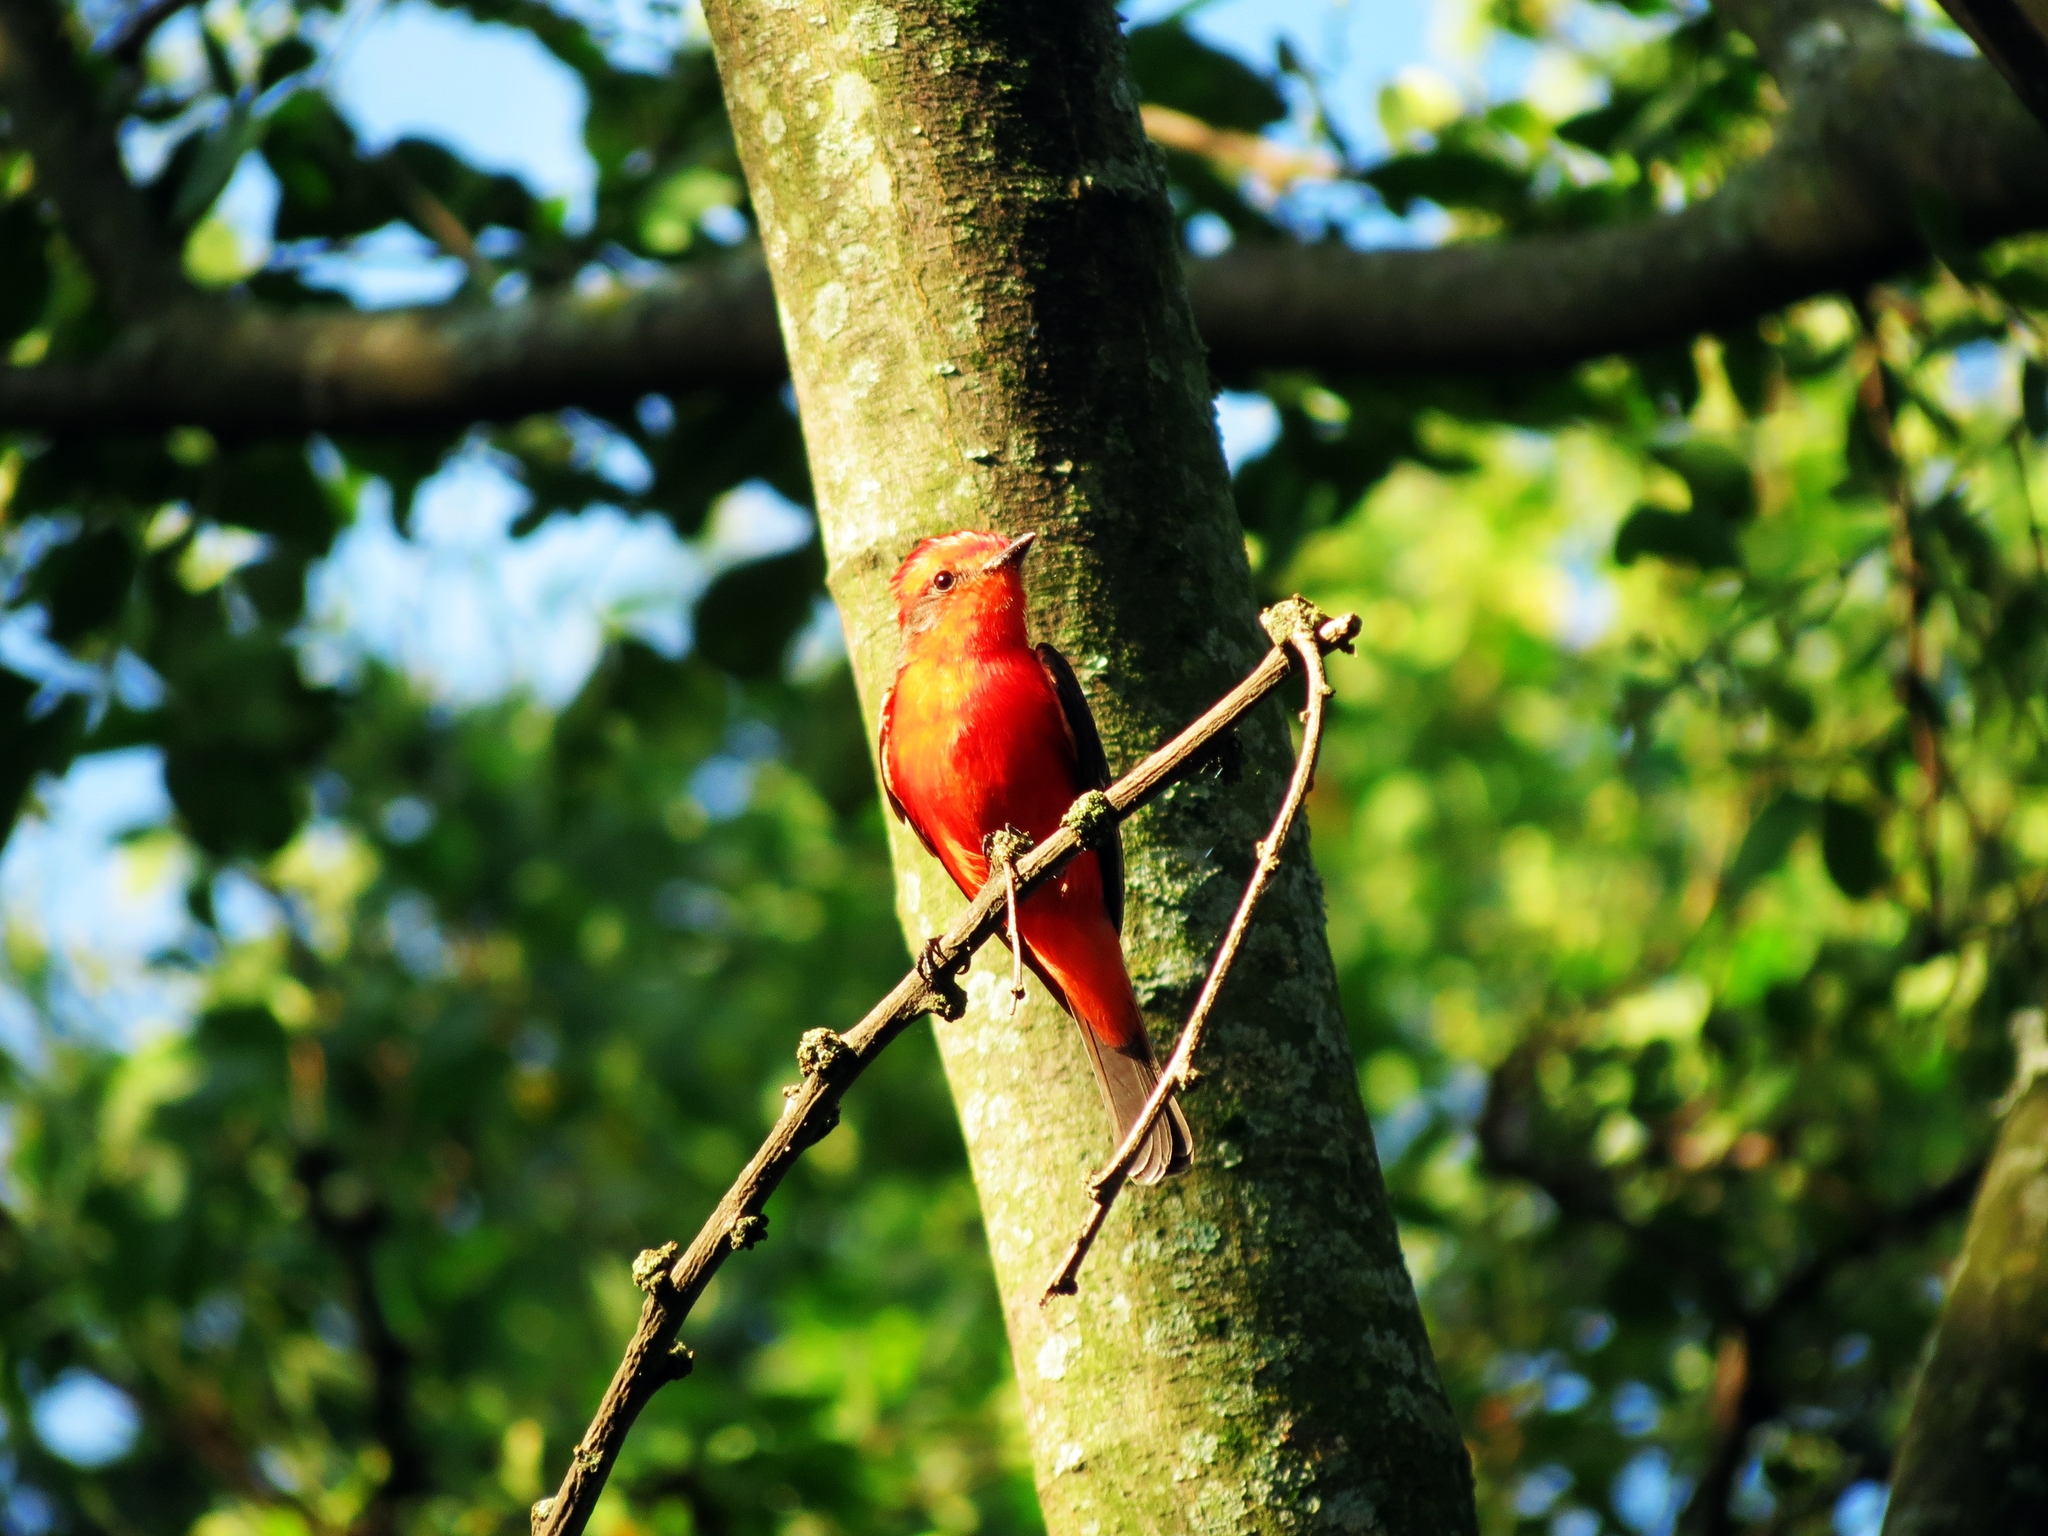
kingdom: Animalia
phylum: Chordata
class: Aves
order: Passeriformes
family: Tyrannidae
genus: Pyrocephalus
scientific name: Pyrocephalus rubinus
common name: Vermilion flycatcher
